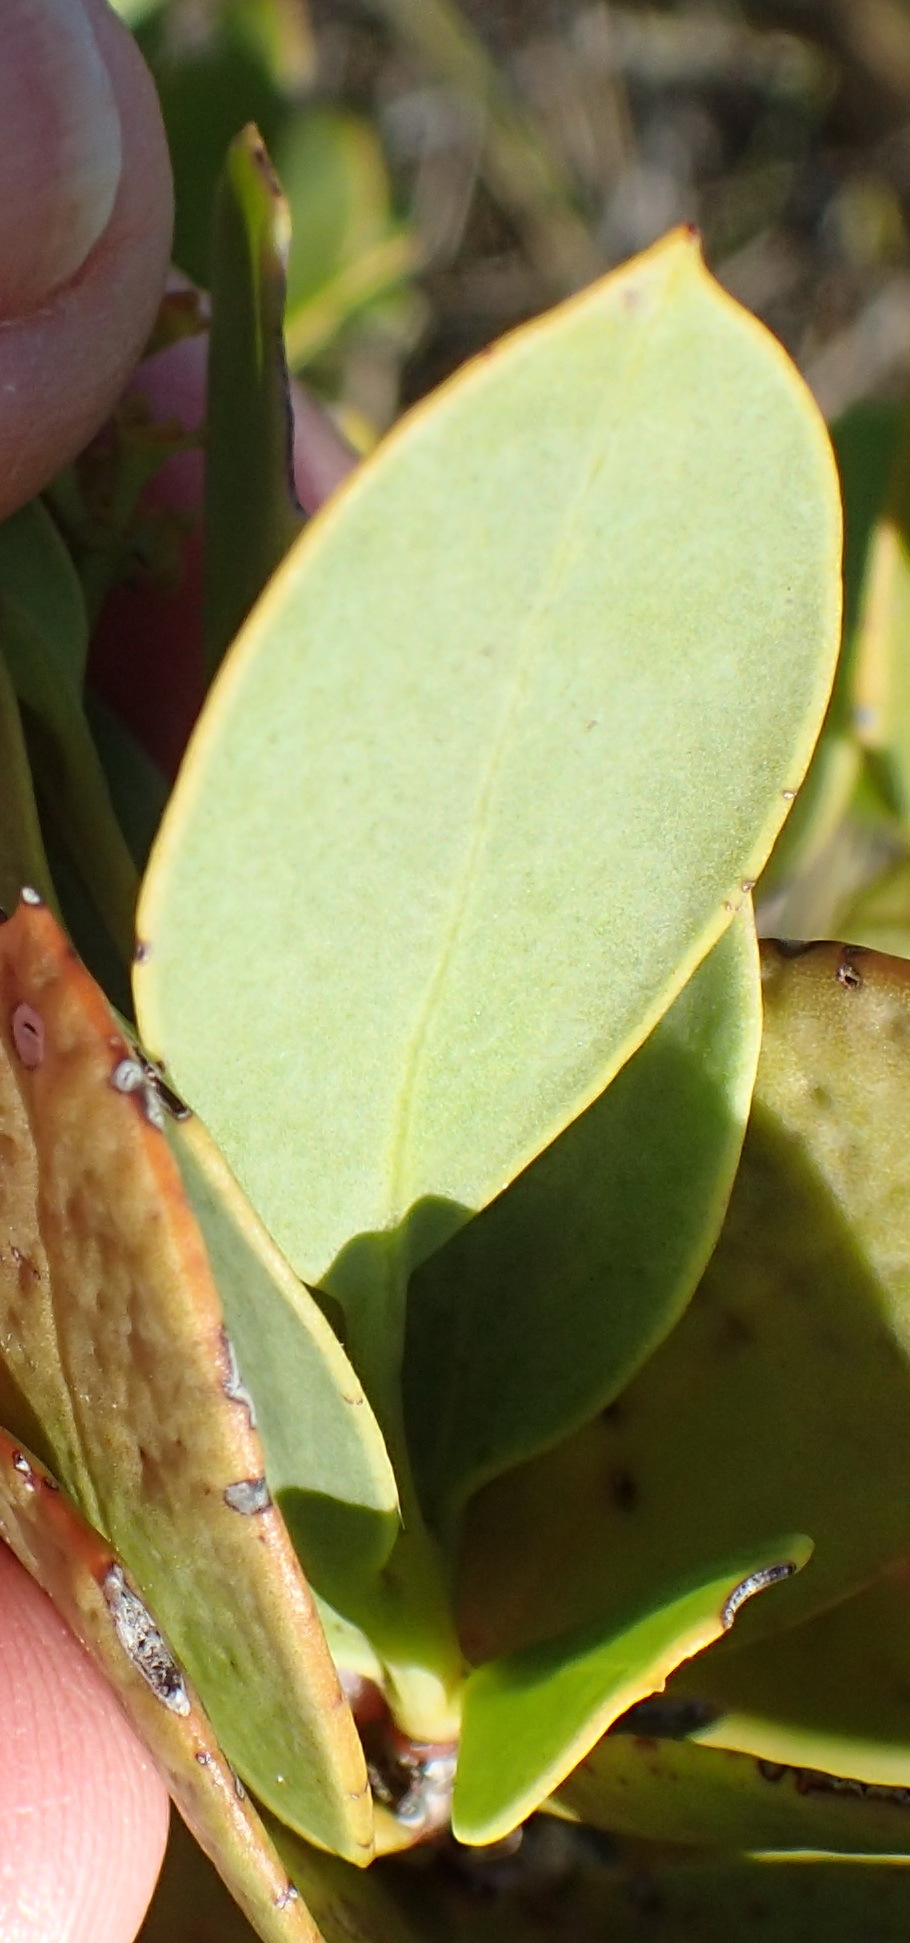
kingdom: Plantae
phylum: Tracheophyta
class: Magnoliopsida
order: Santalales
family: Santalaceae
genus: Osyris
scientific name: Osyris compressa
